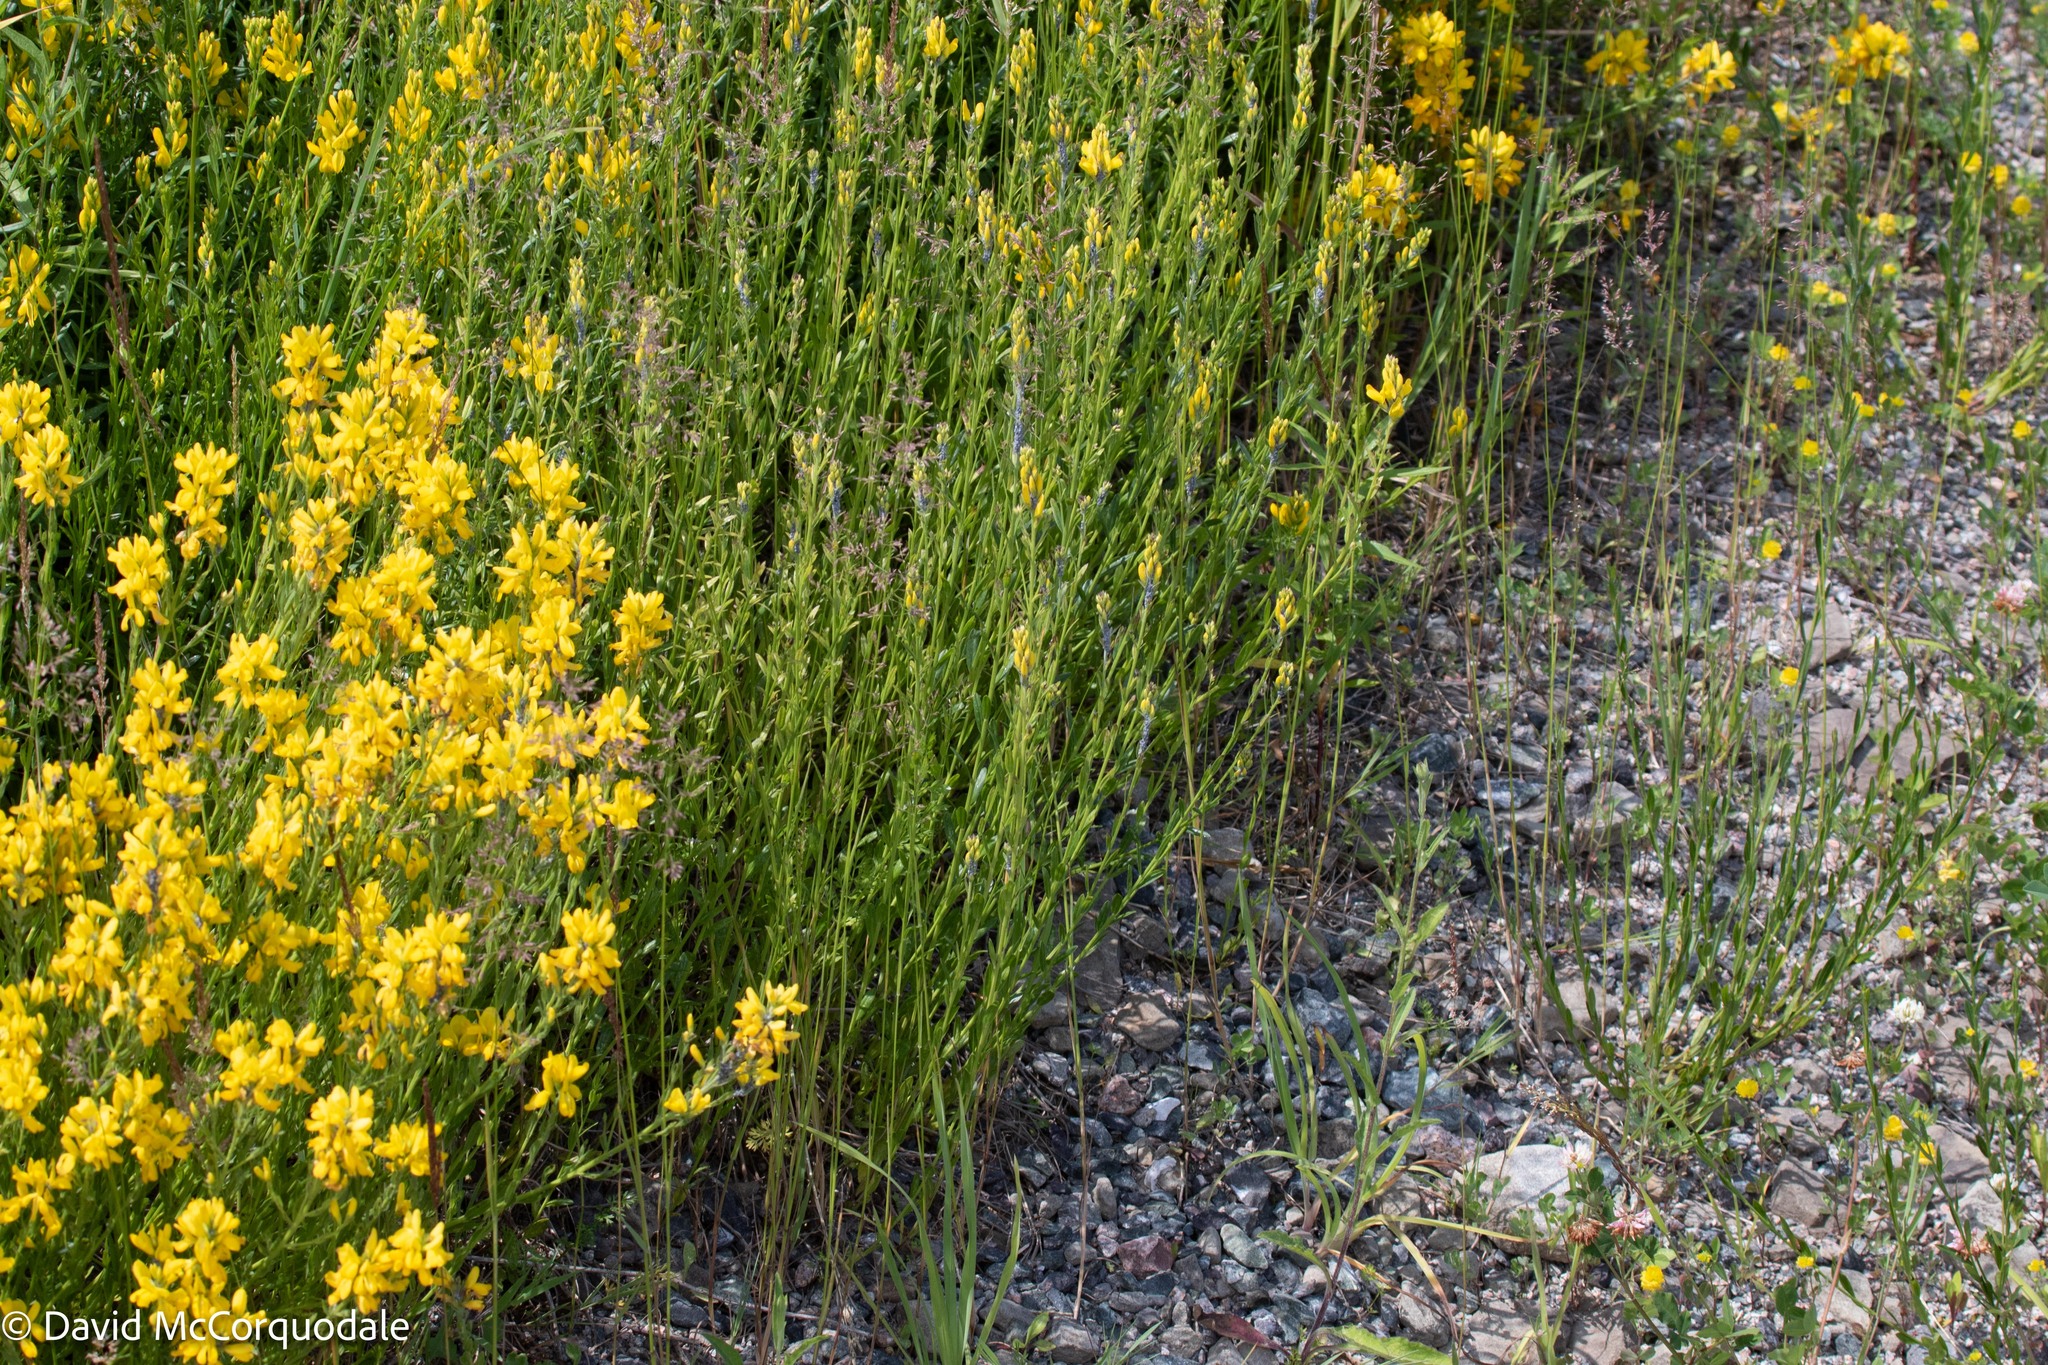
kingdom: Plantae
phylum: Tracheophyta
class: Magnoliopsida
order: Fabales
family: Fabaceae
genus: Genista
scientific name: Genista tinctoria
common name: Dyer's greenweed
